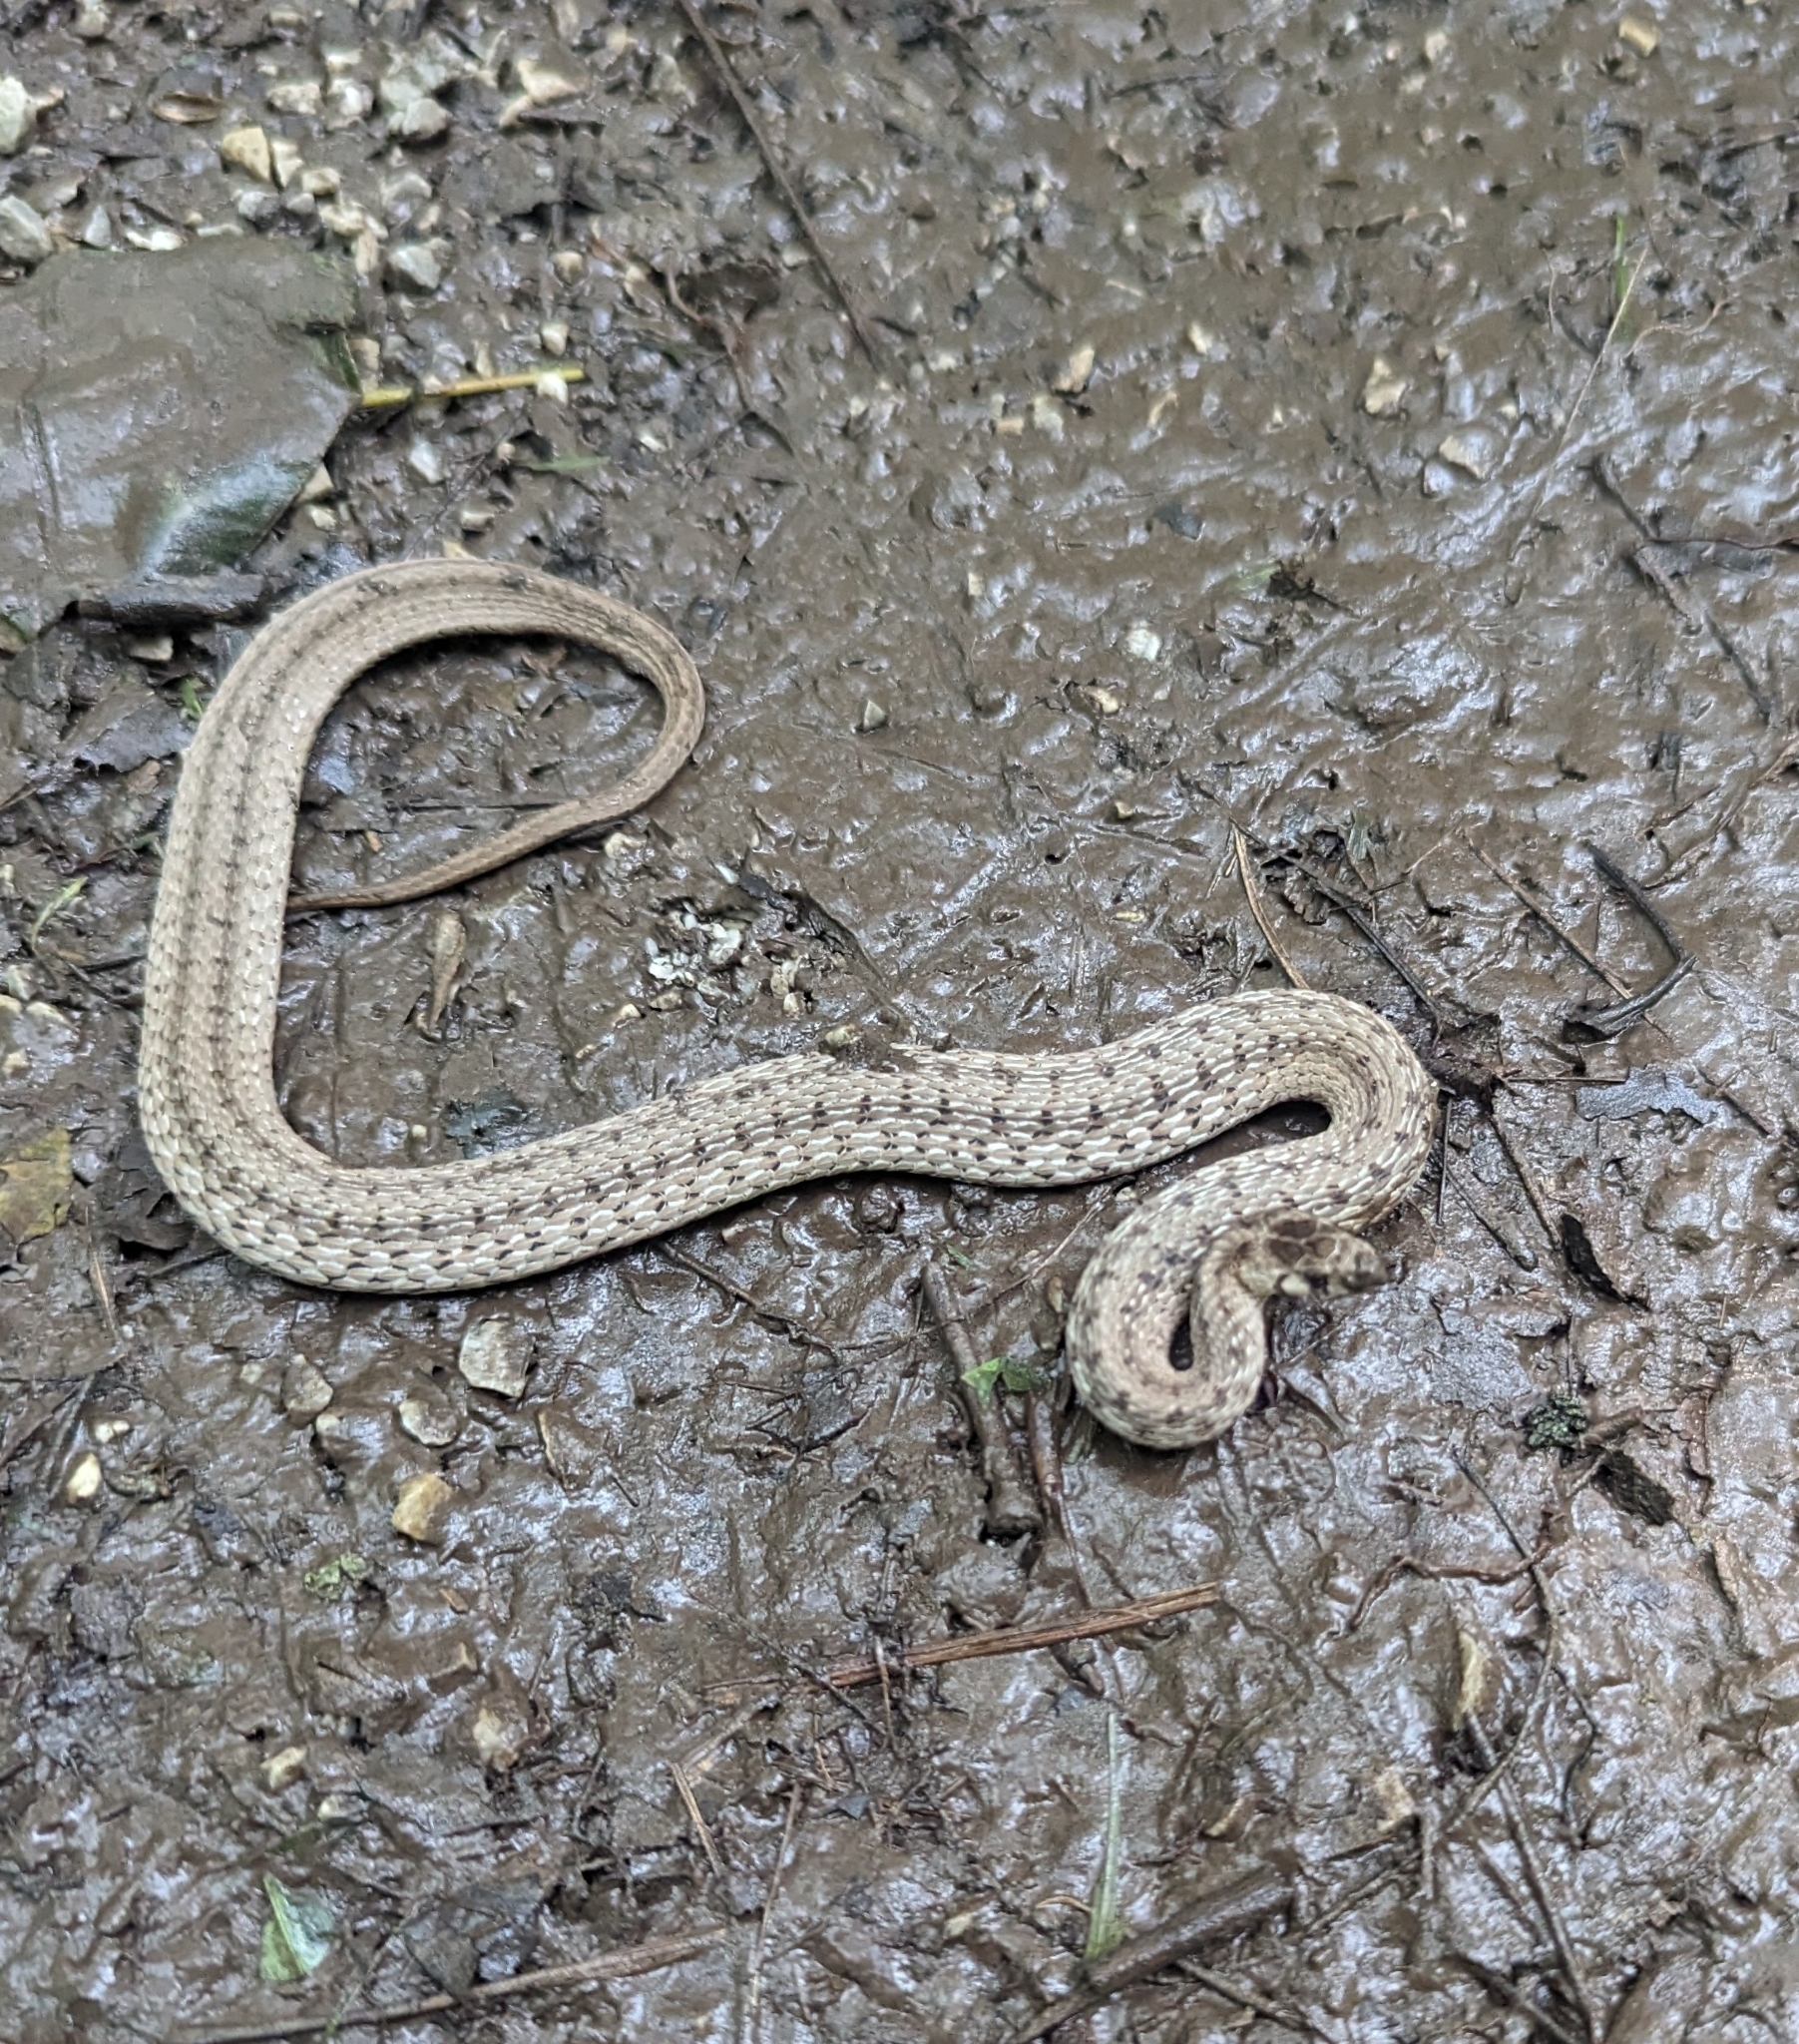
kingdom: Animalia
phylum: Chordata
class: Squamata
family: Colubridae
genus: Storeria
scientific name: Storeria dekayi
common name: (dekay’s) brown snake
